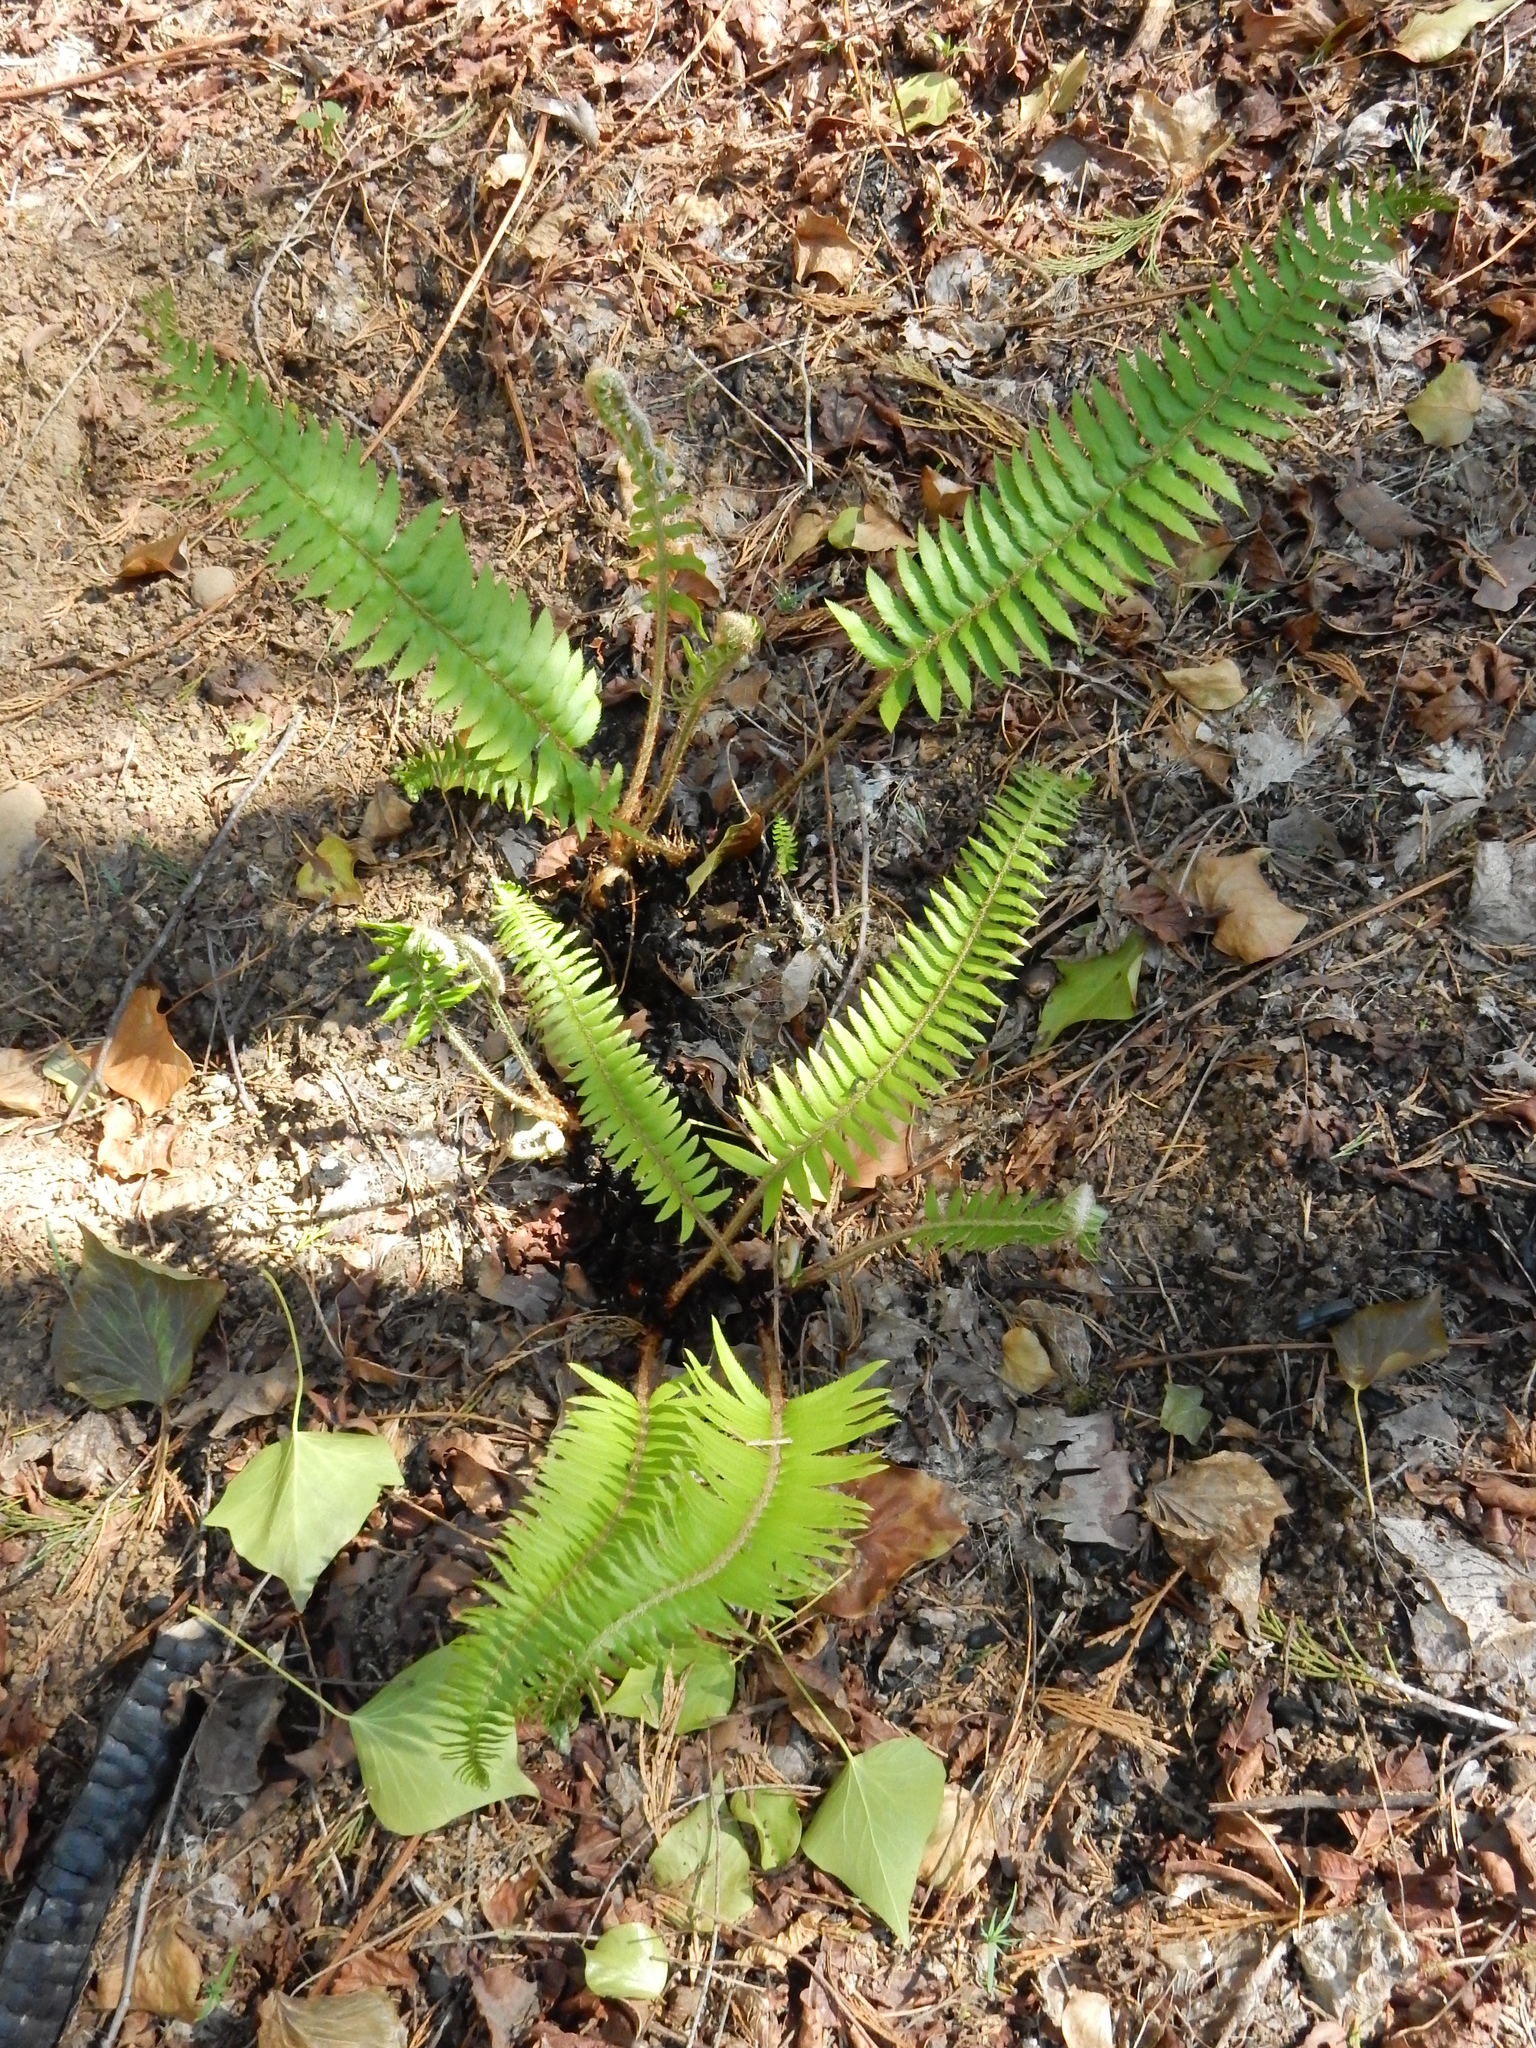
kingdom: Plantae
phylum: Tracheophyta
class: Polypodiopsida
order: Polypodiales
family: Dryopteridaceae
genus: Polystichum
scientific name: Polystichum munitum
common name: Western sword-fern
